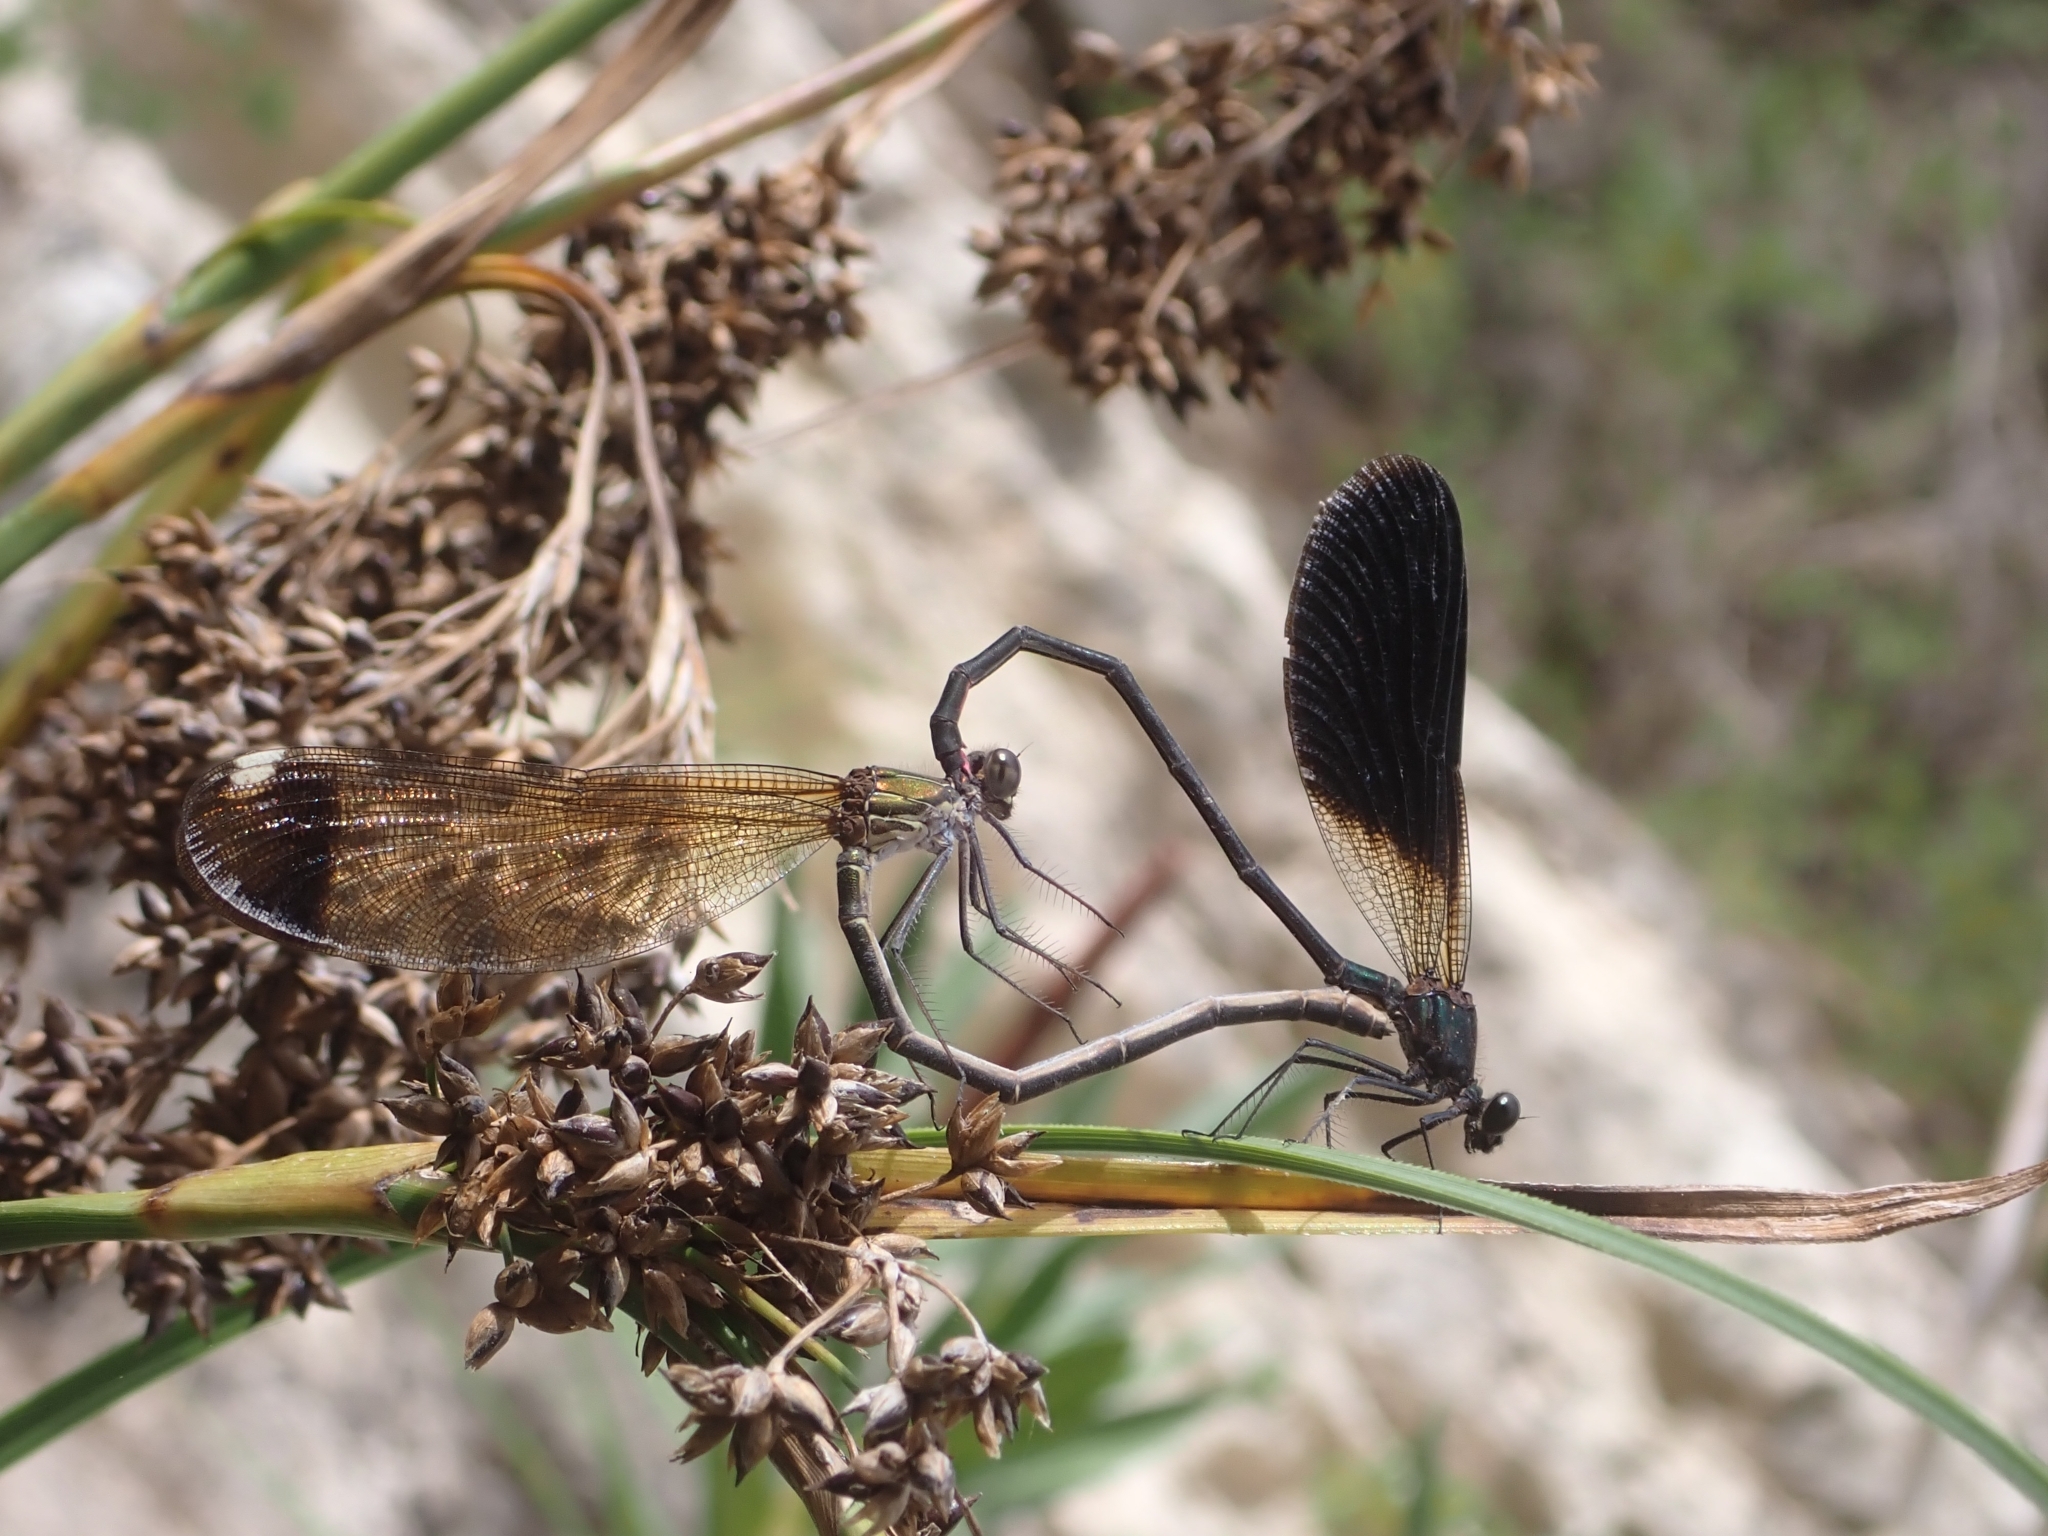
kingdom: Animalia
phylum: Arthropoda
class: Insecta
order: Odonata
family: Calopterygidae
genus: Calopteryx
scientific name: Calopteryx haemorrhoidalis
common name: Copper demoiselle
